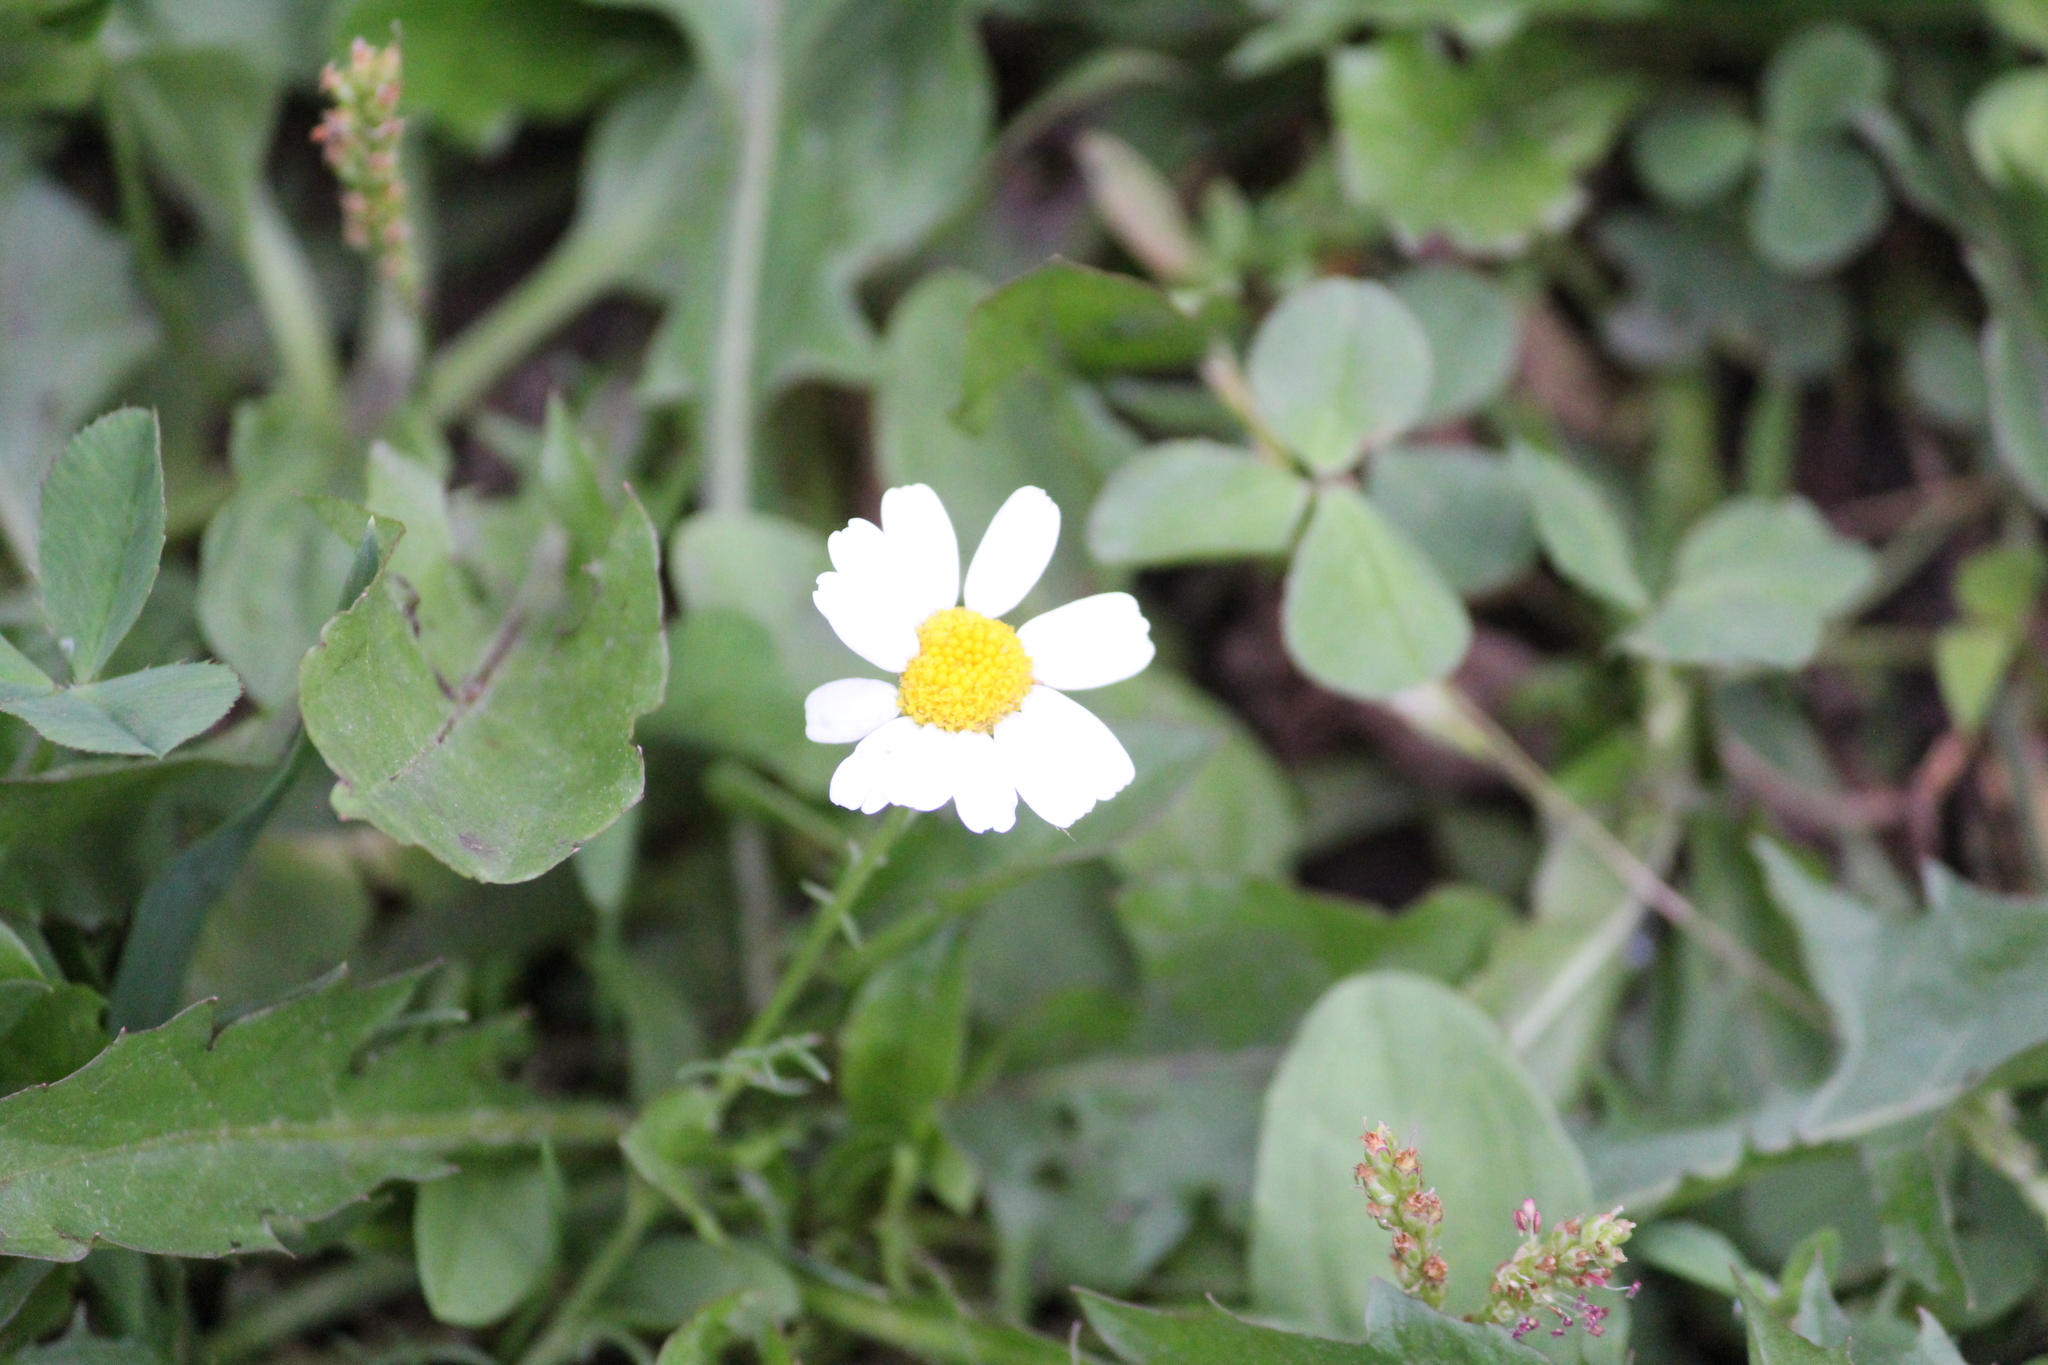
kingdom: Plantae
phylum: Tracheophyta
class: Magnoliopsida
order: Asterales
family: Asteraceae
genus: Tripleurospermum
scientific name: Tripleurospermum inodorum
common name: Scentless mayweed
